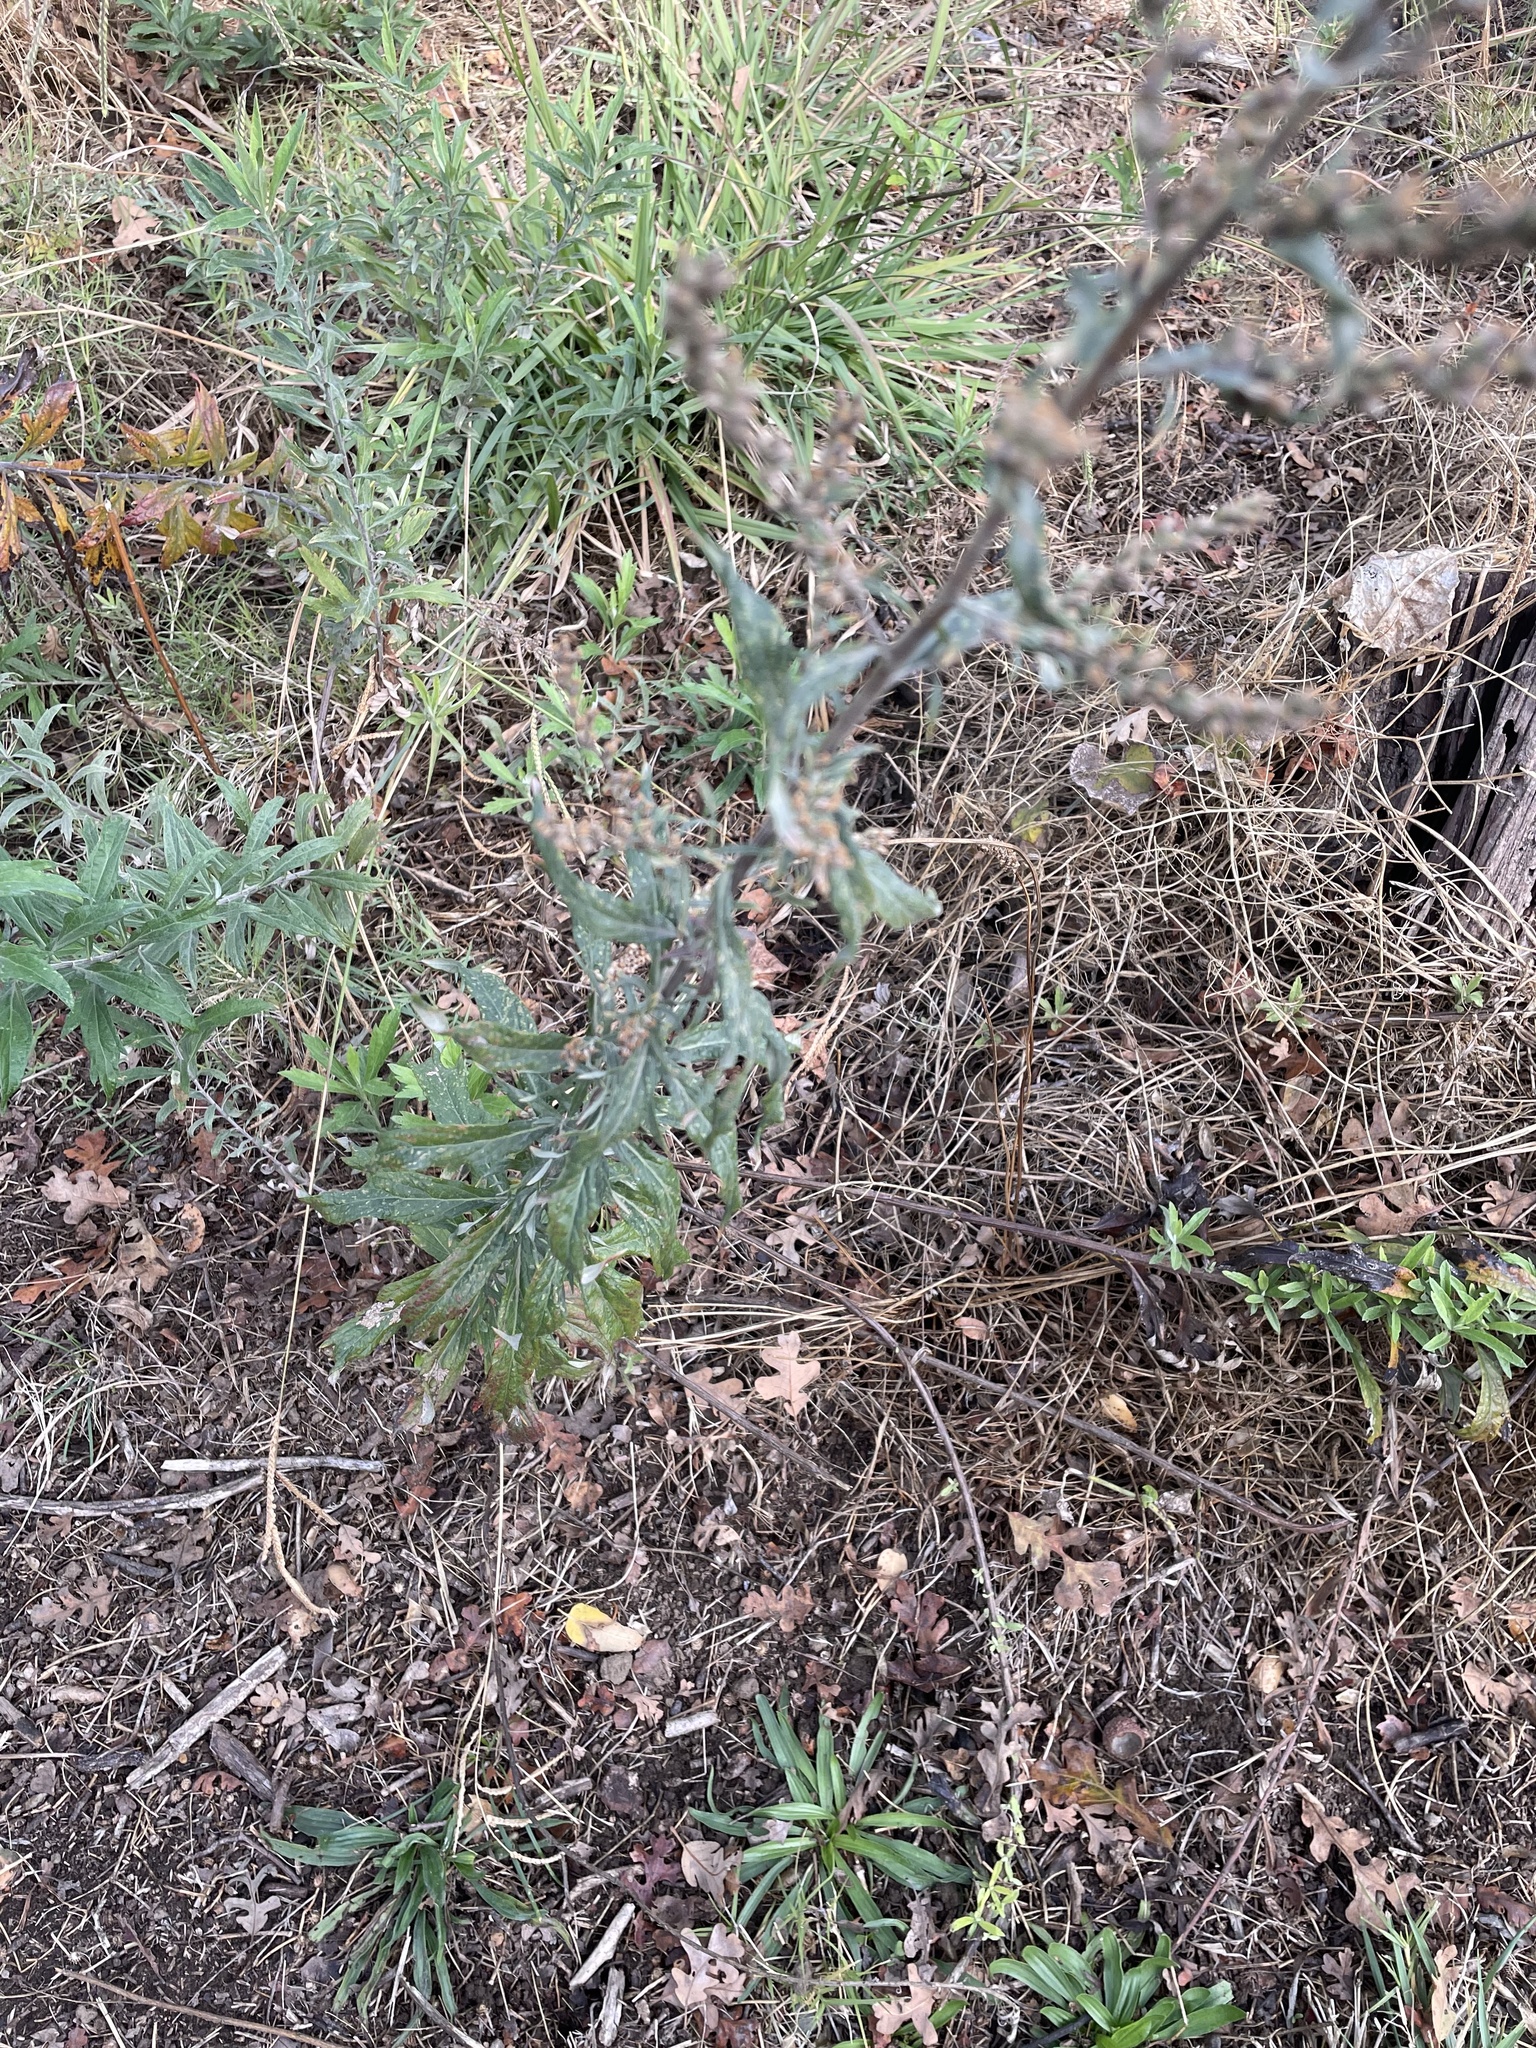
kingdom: Plantae
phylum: Tracheophyta
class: Magnoliopsida
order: Asterales
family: Asteraceae
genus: Artemisia
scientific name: Artemisia douglasiana
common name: Northwest mugwort
